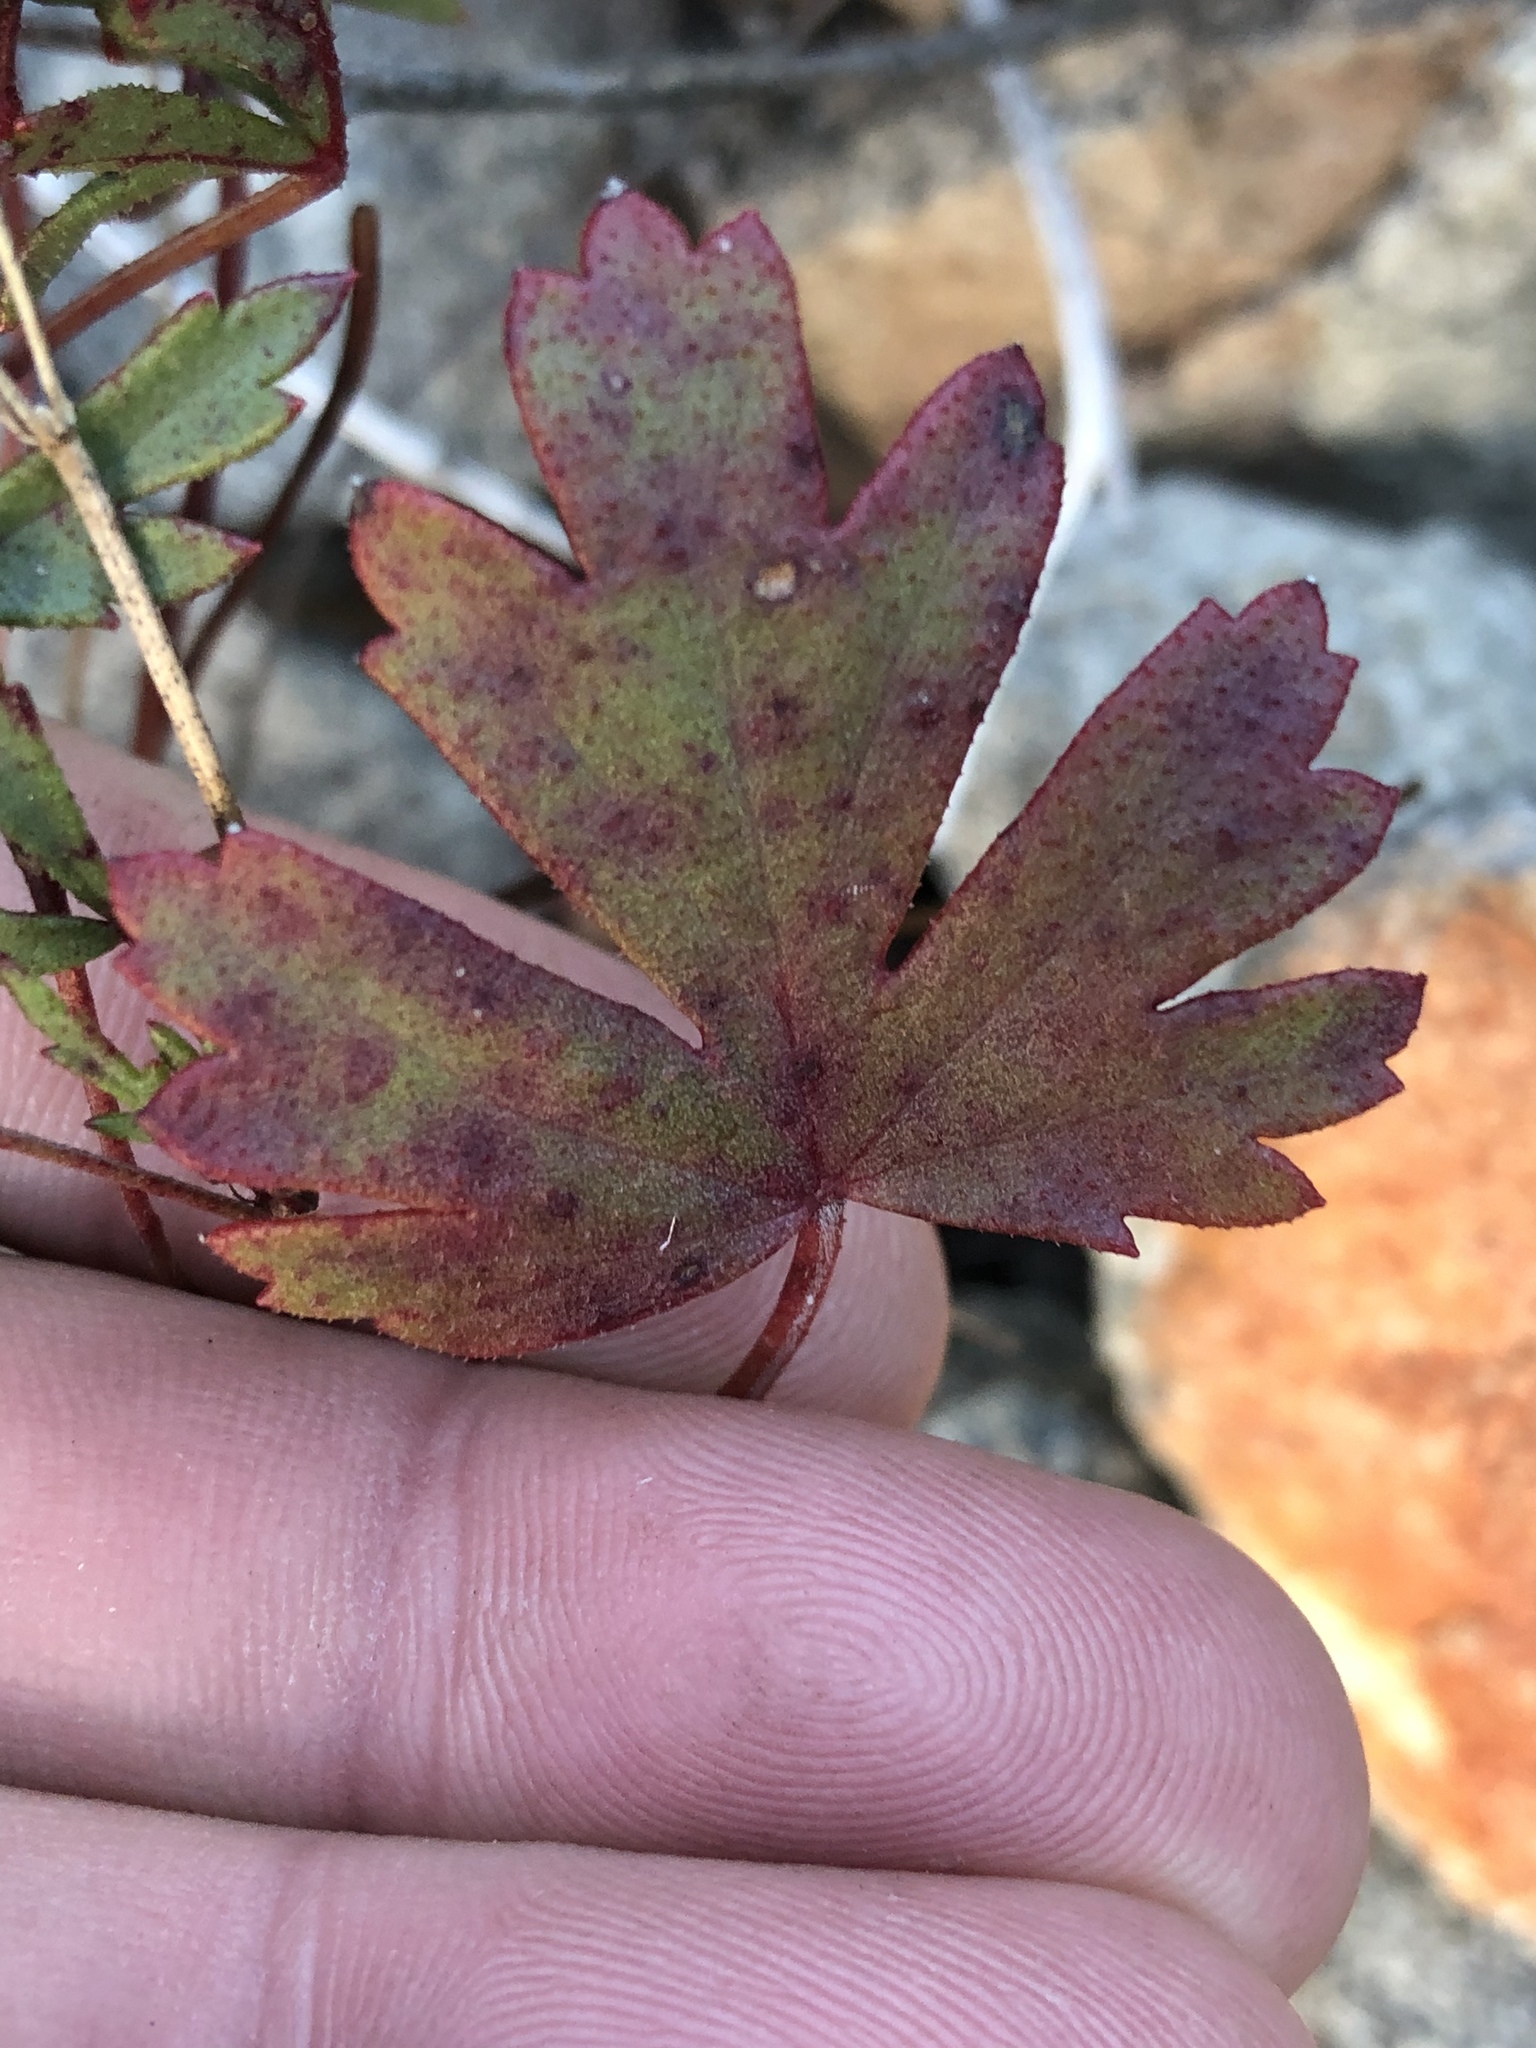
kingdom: Plantae
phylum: Tracheophyta
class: Magnoliopsida
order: Geraniales
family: Geraniaceae
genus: Pelargonium
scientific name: Pelargonium incarnatum
